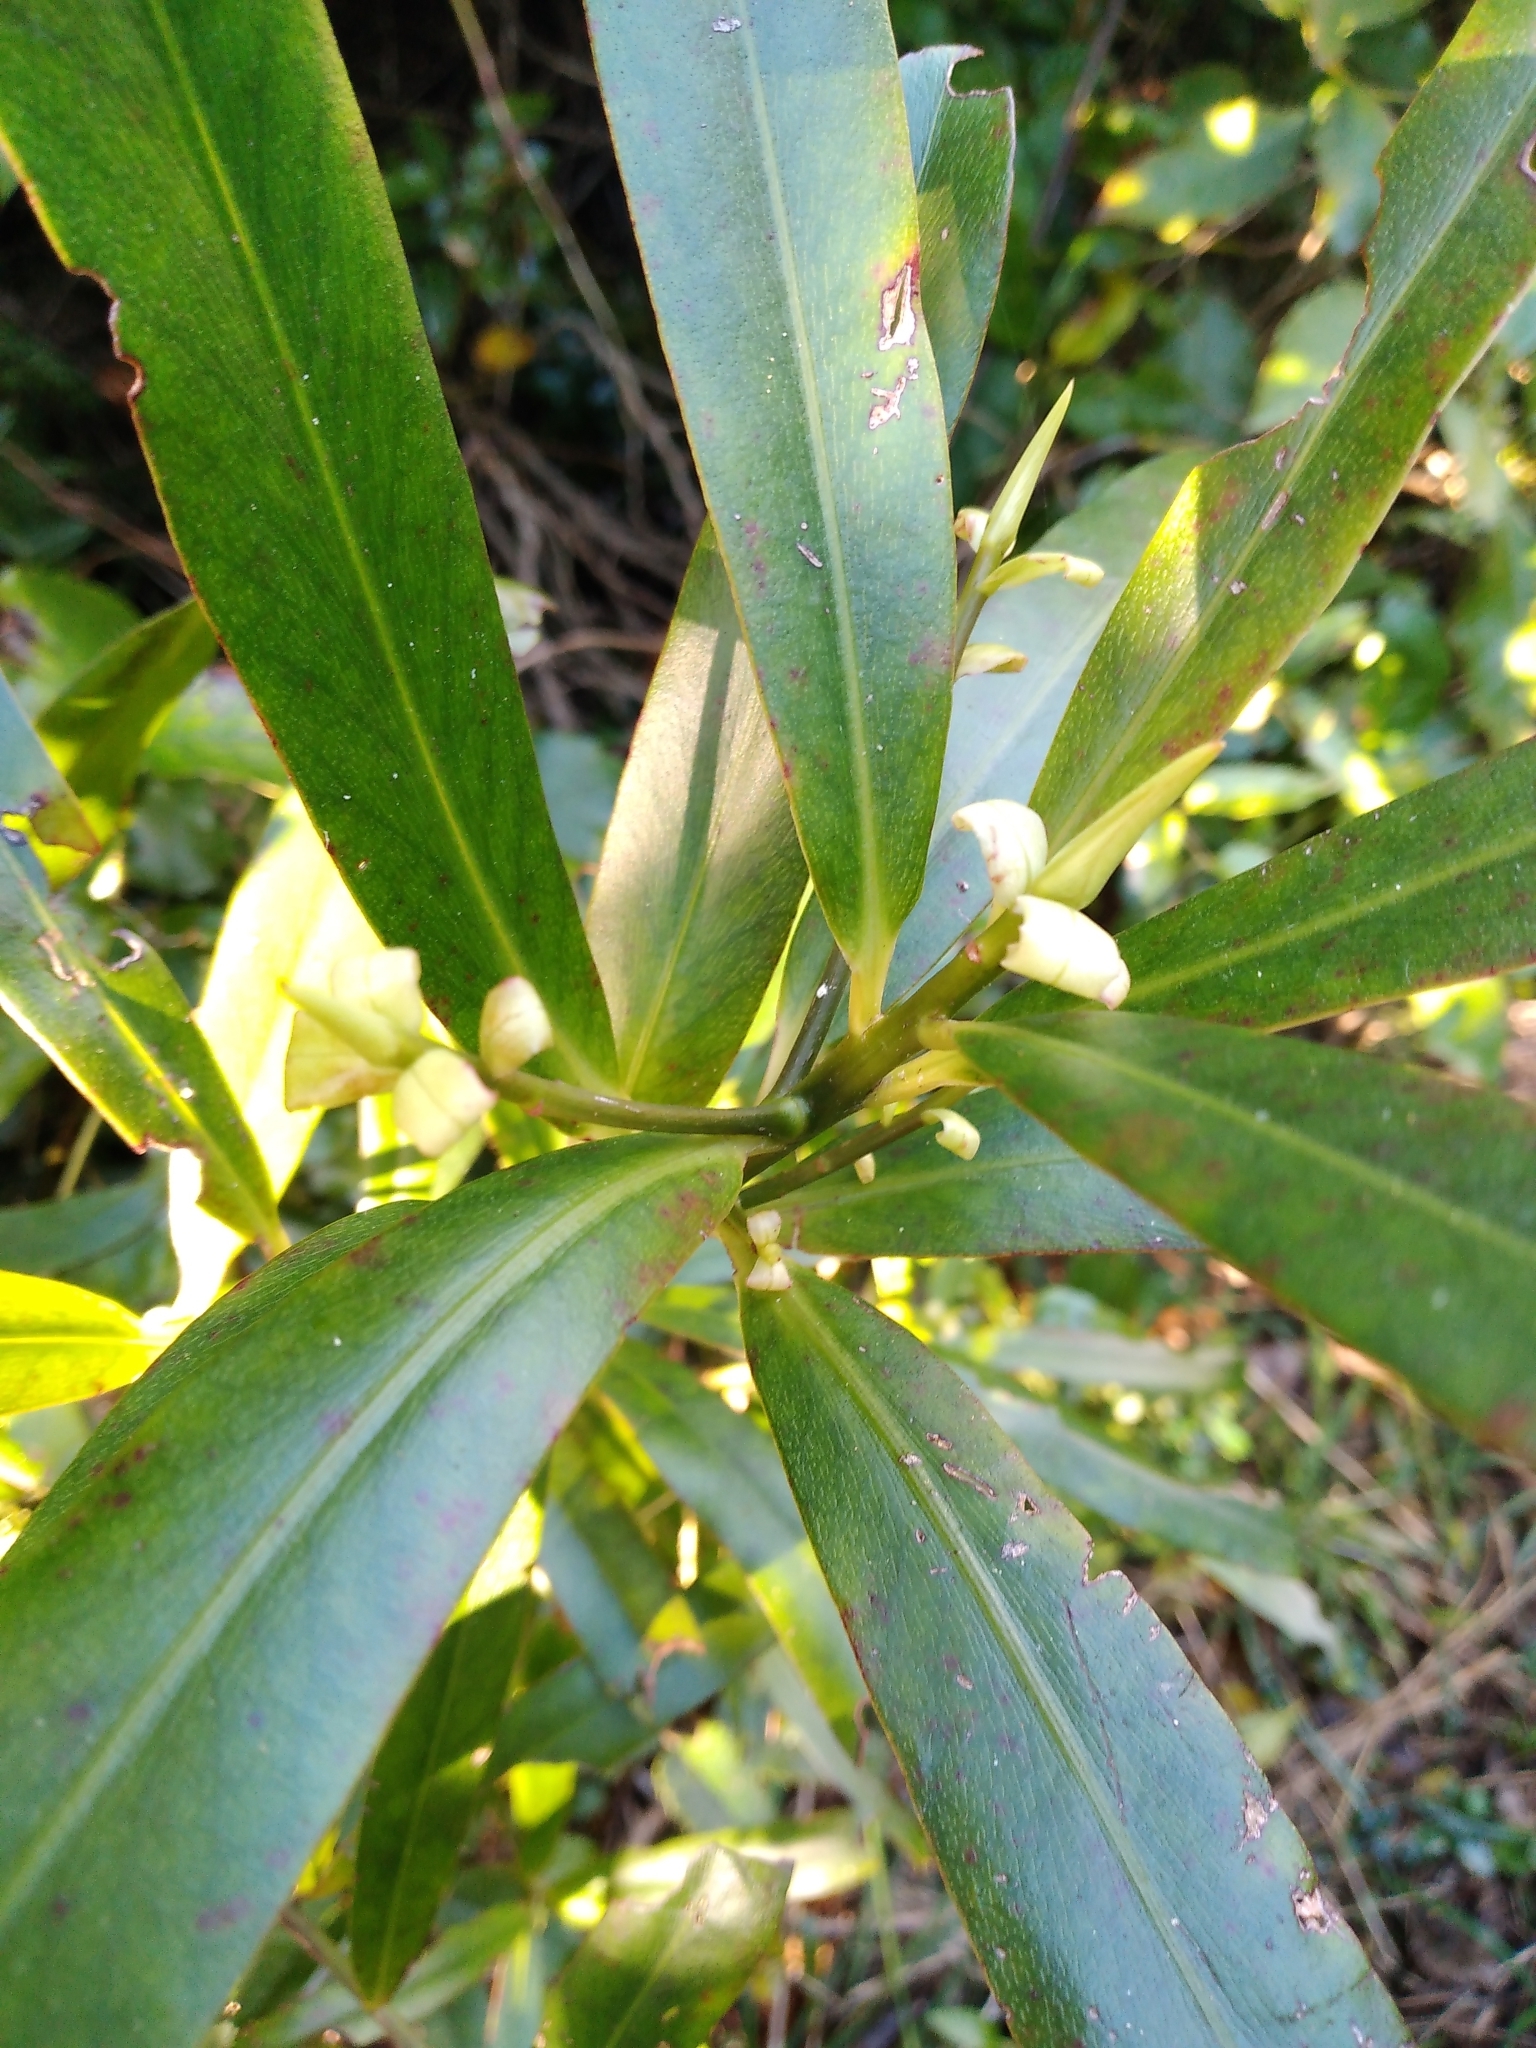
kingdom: Plantae
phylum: Tracheophyta
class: Magnoliopsida
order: Ericales
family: Primulaceae
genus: Myrsine
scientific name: Myrsine salicina
